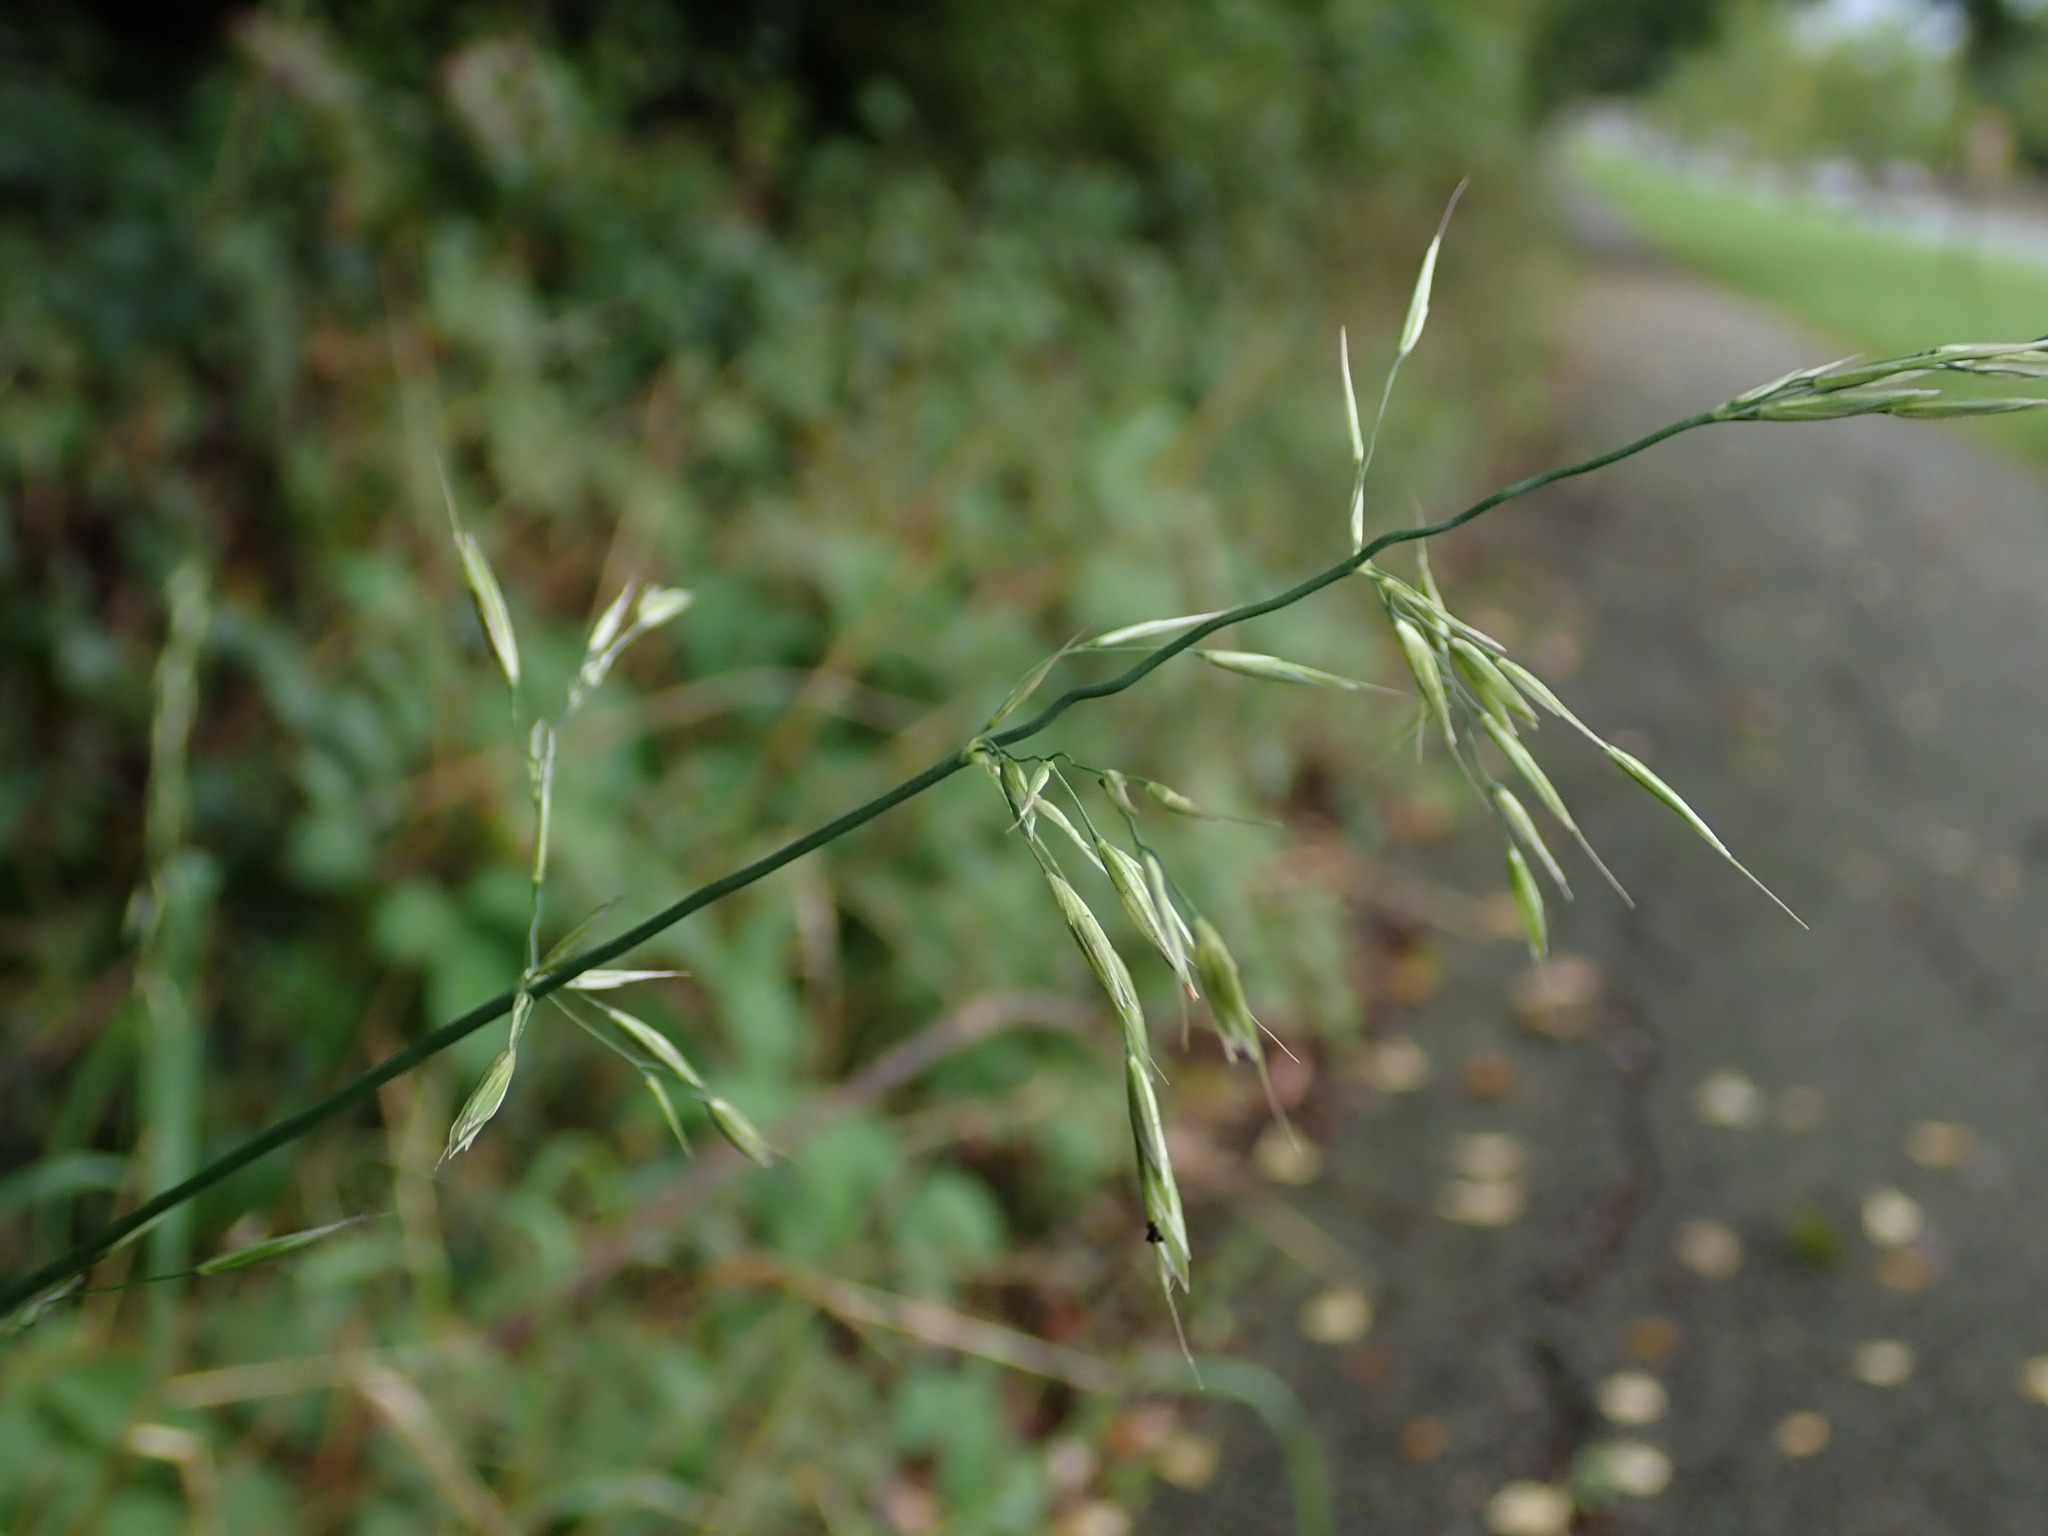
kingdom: Plantae
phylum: Tracheophyta
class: Liliopsida
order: Poales
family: Poaceae
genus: Arrhenatherum
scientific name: Arrhenatherum elatius
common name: Tall oatgrass
